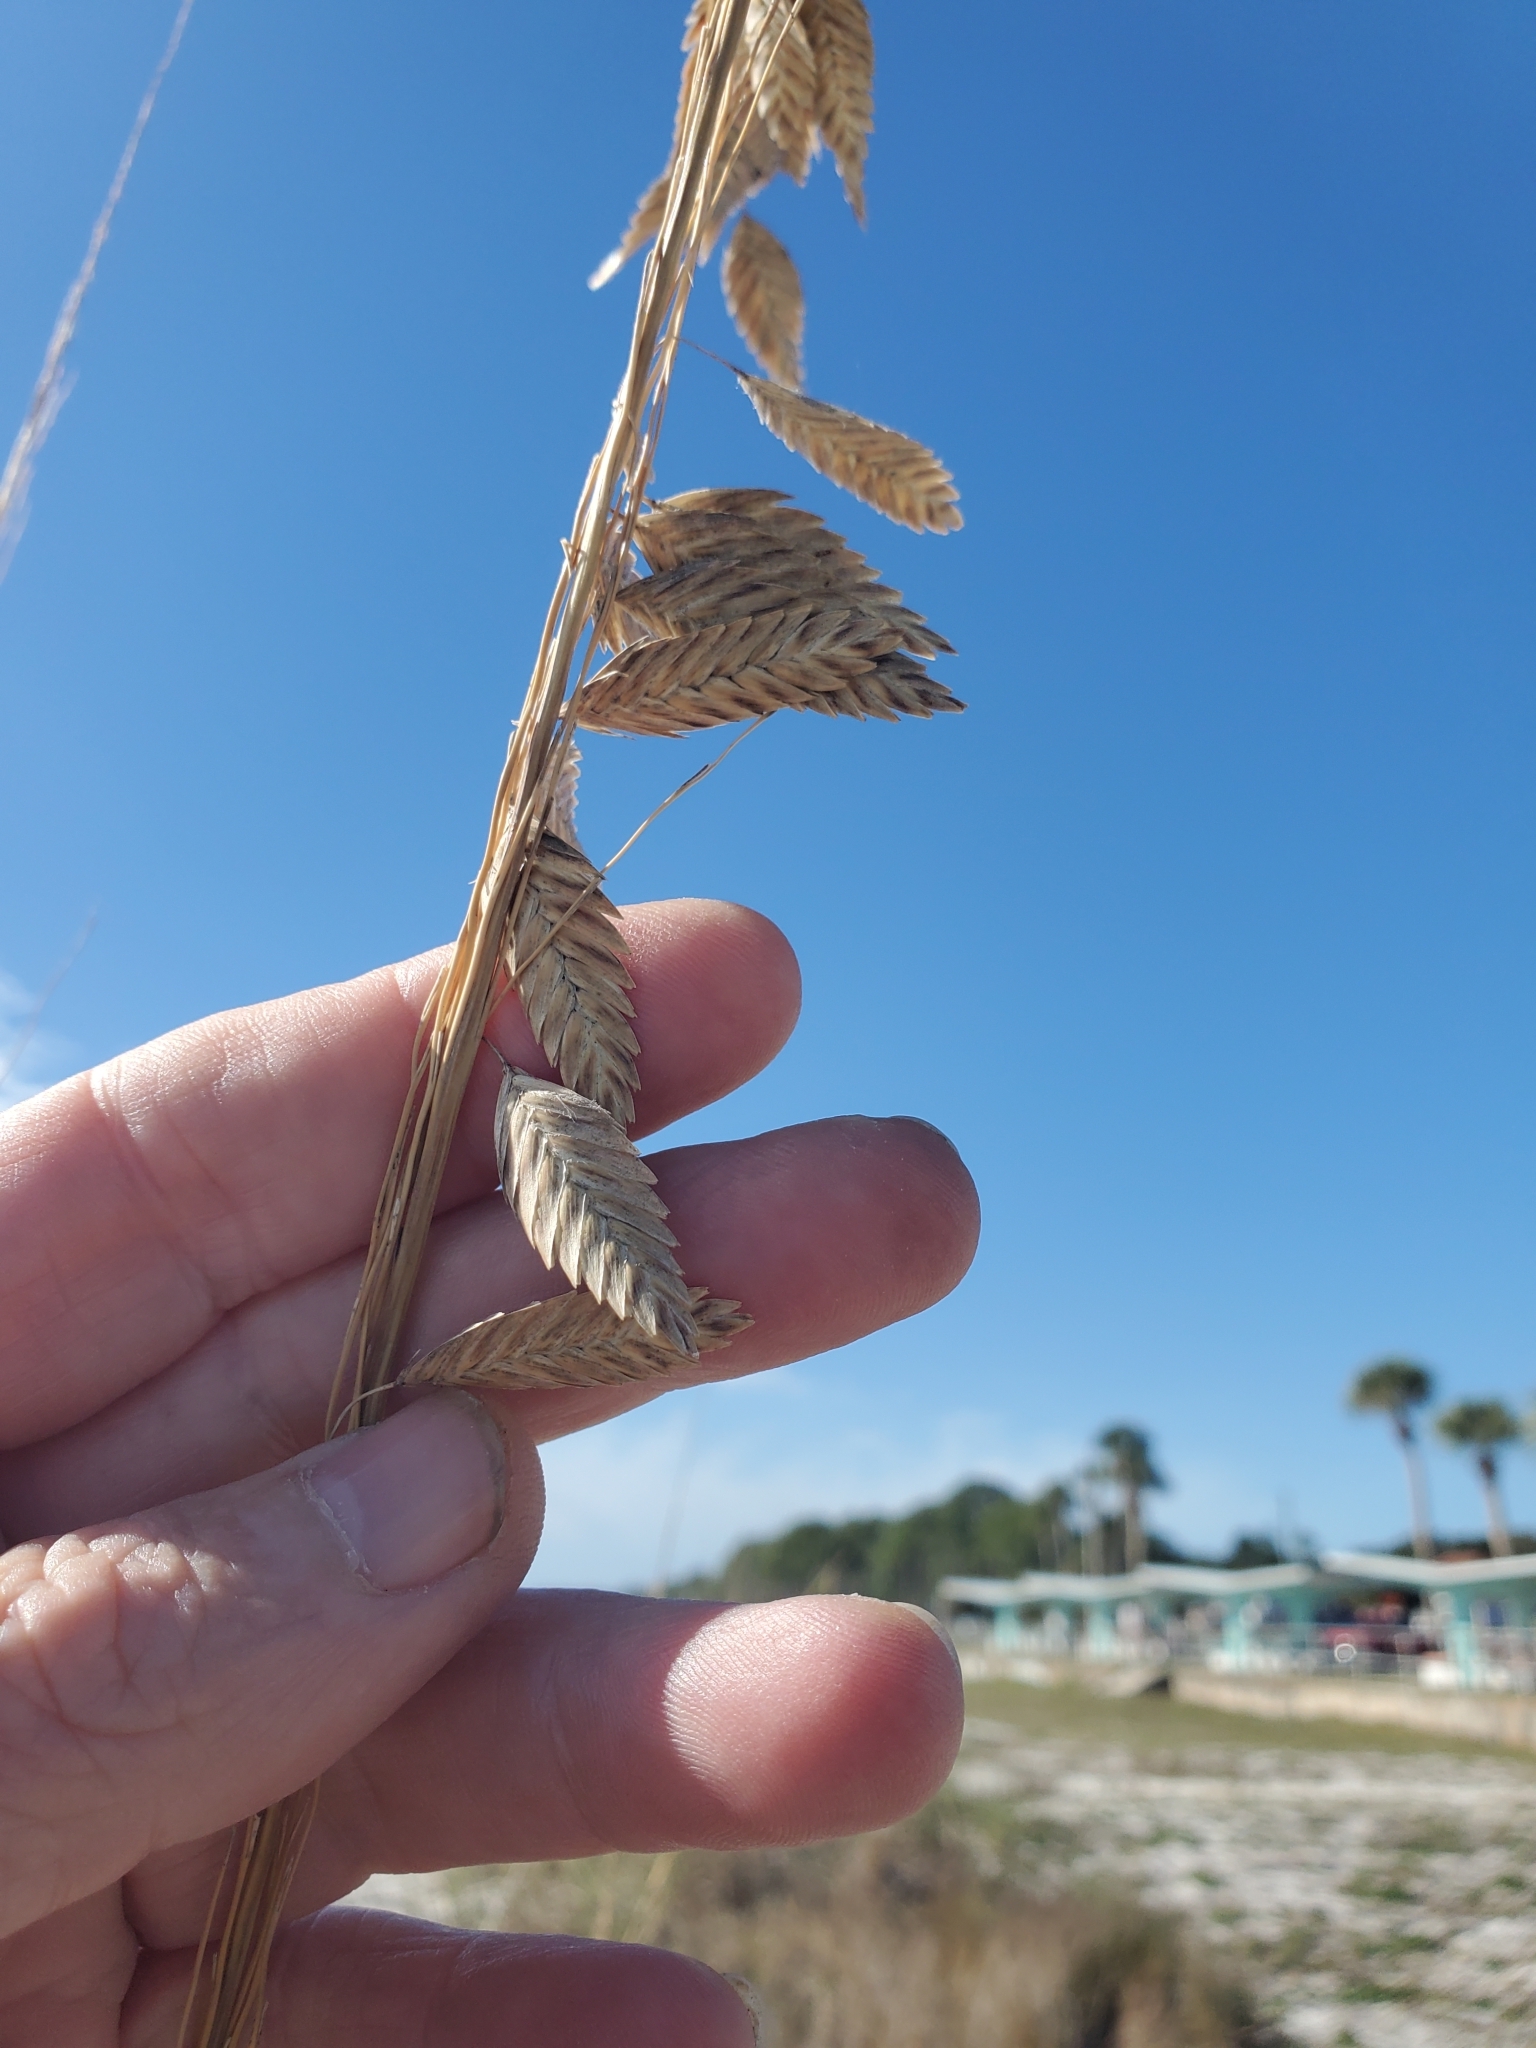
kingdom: Plantae
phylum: Tracheophyta
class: Liliopsida
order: Poales
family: Poaceae
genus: Uniola
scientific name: Uniola paniculata
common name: Seaside-oats
